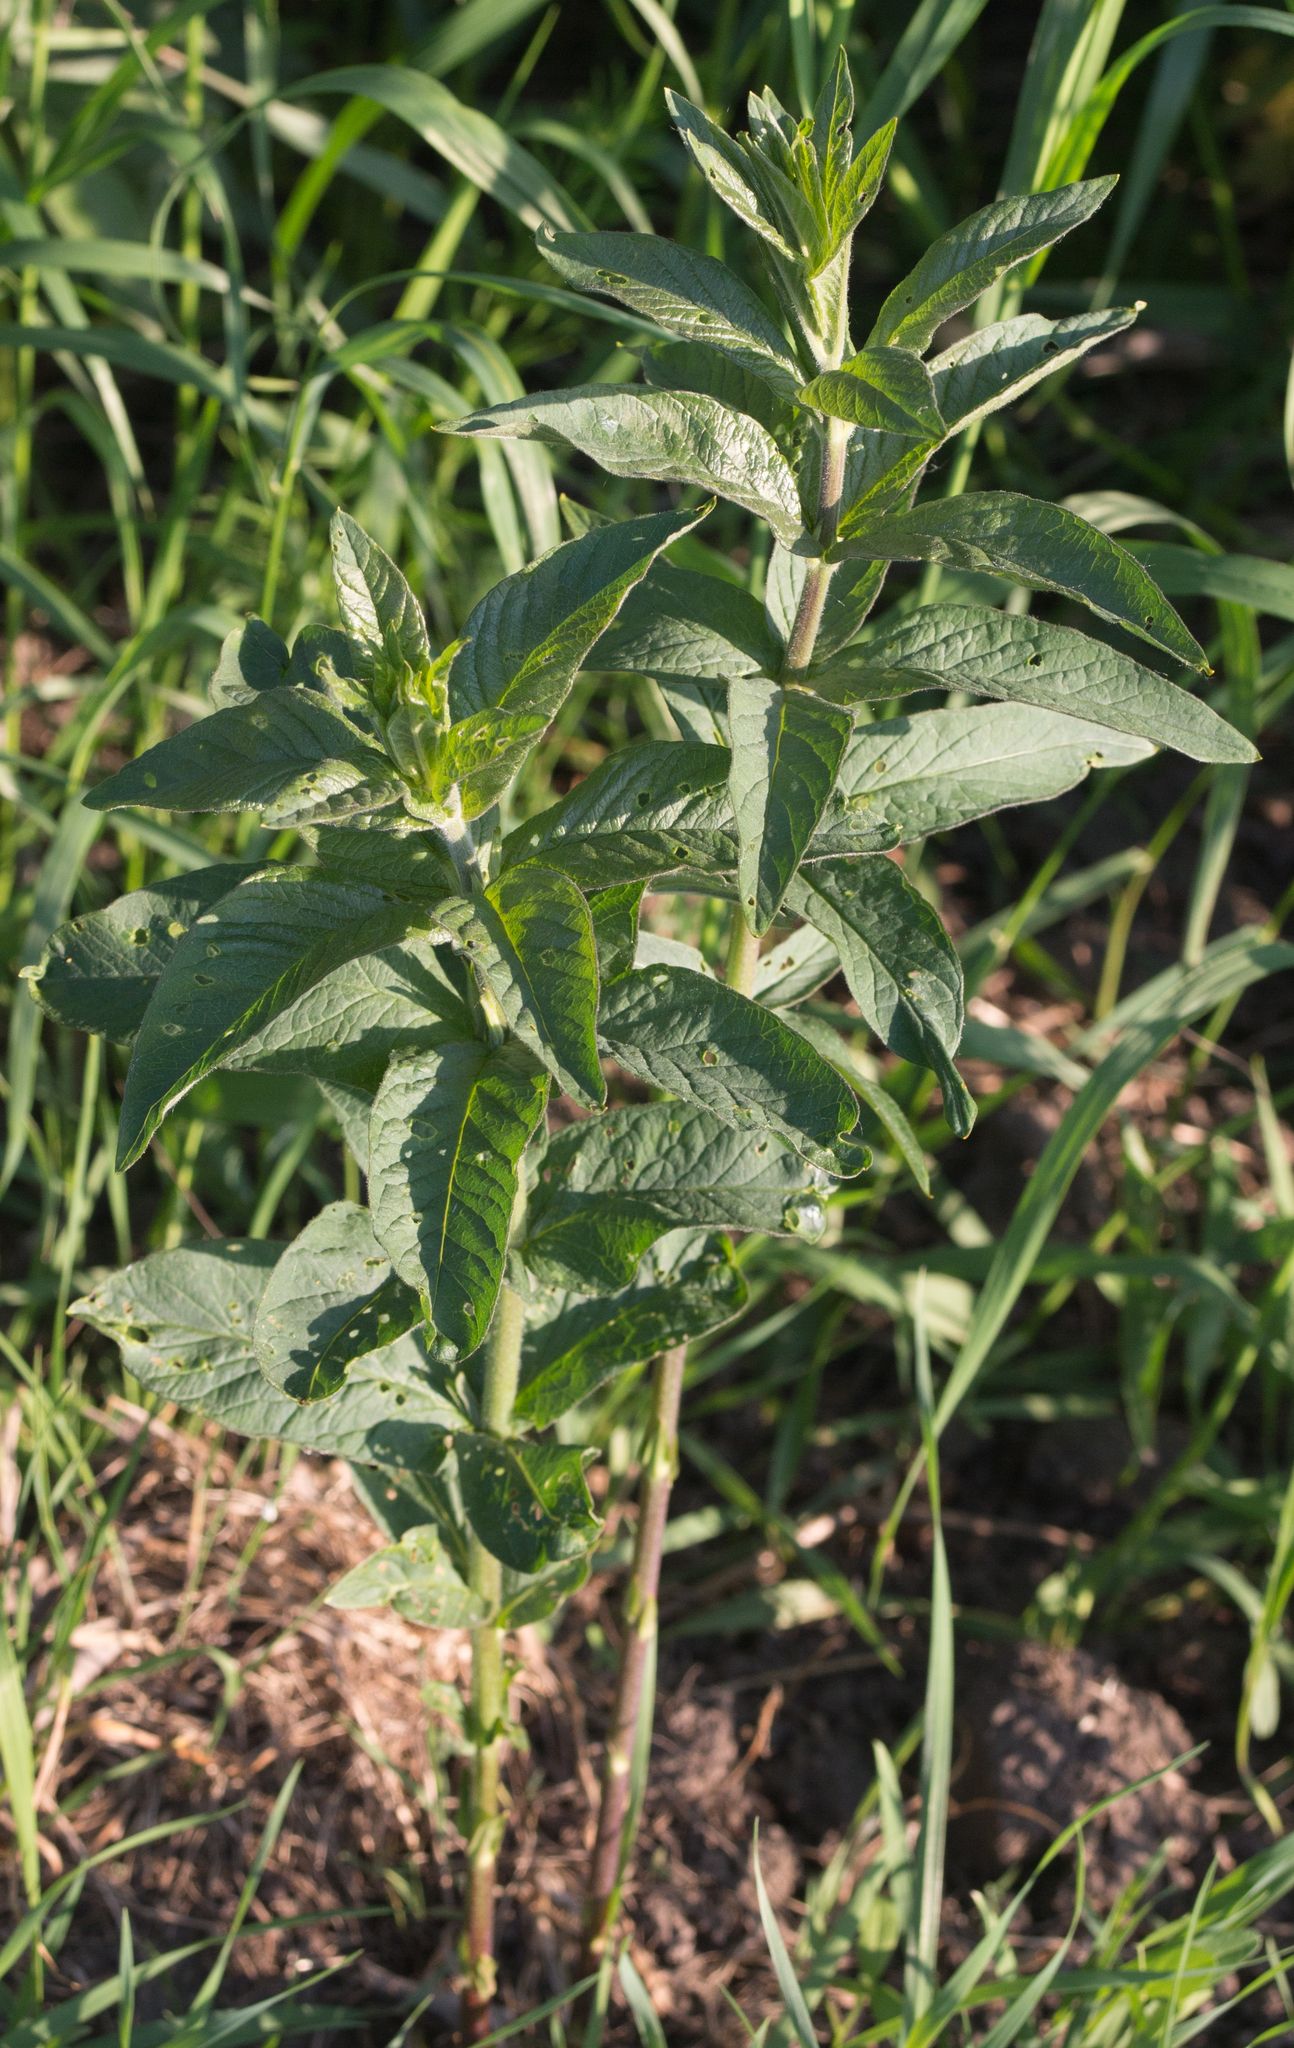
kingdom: Plantae
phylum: Tracheophyta
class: Magnoliopsida
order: Ericales
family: Primulaceae
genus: Lysimachia
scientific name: Lysimachia vulgaris
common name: Yellow loosestrife
